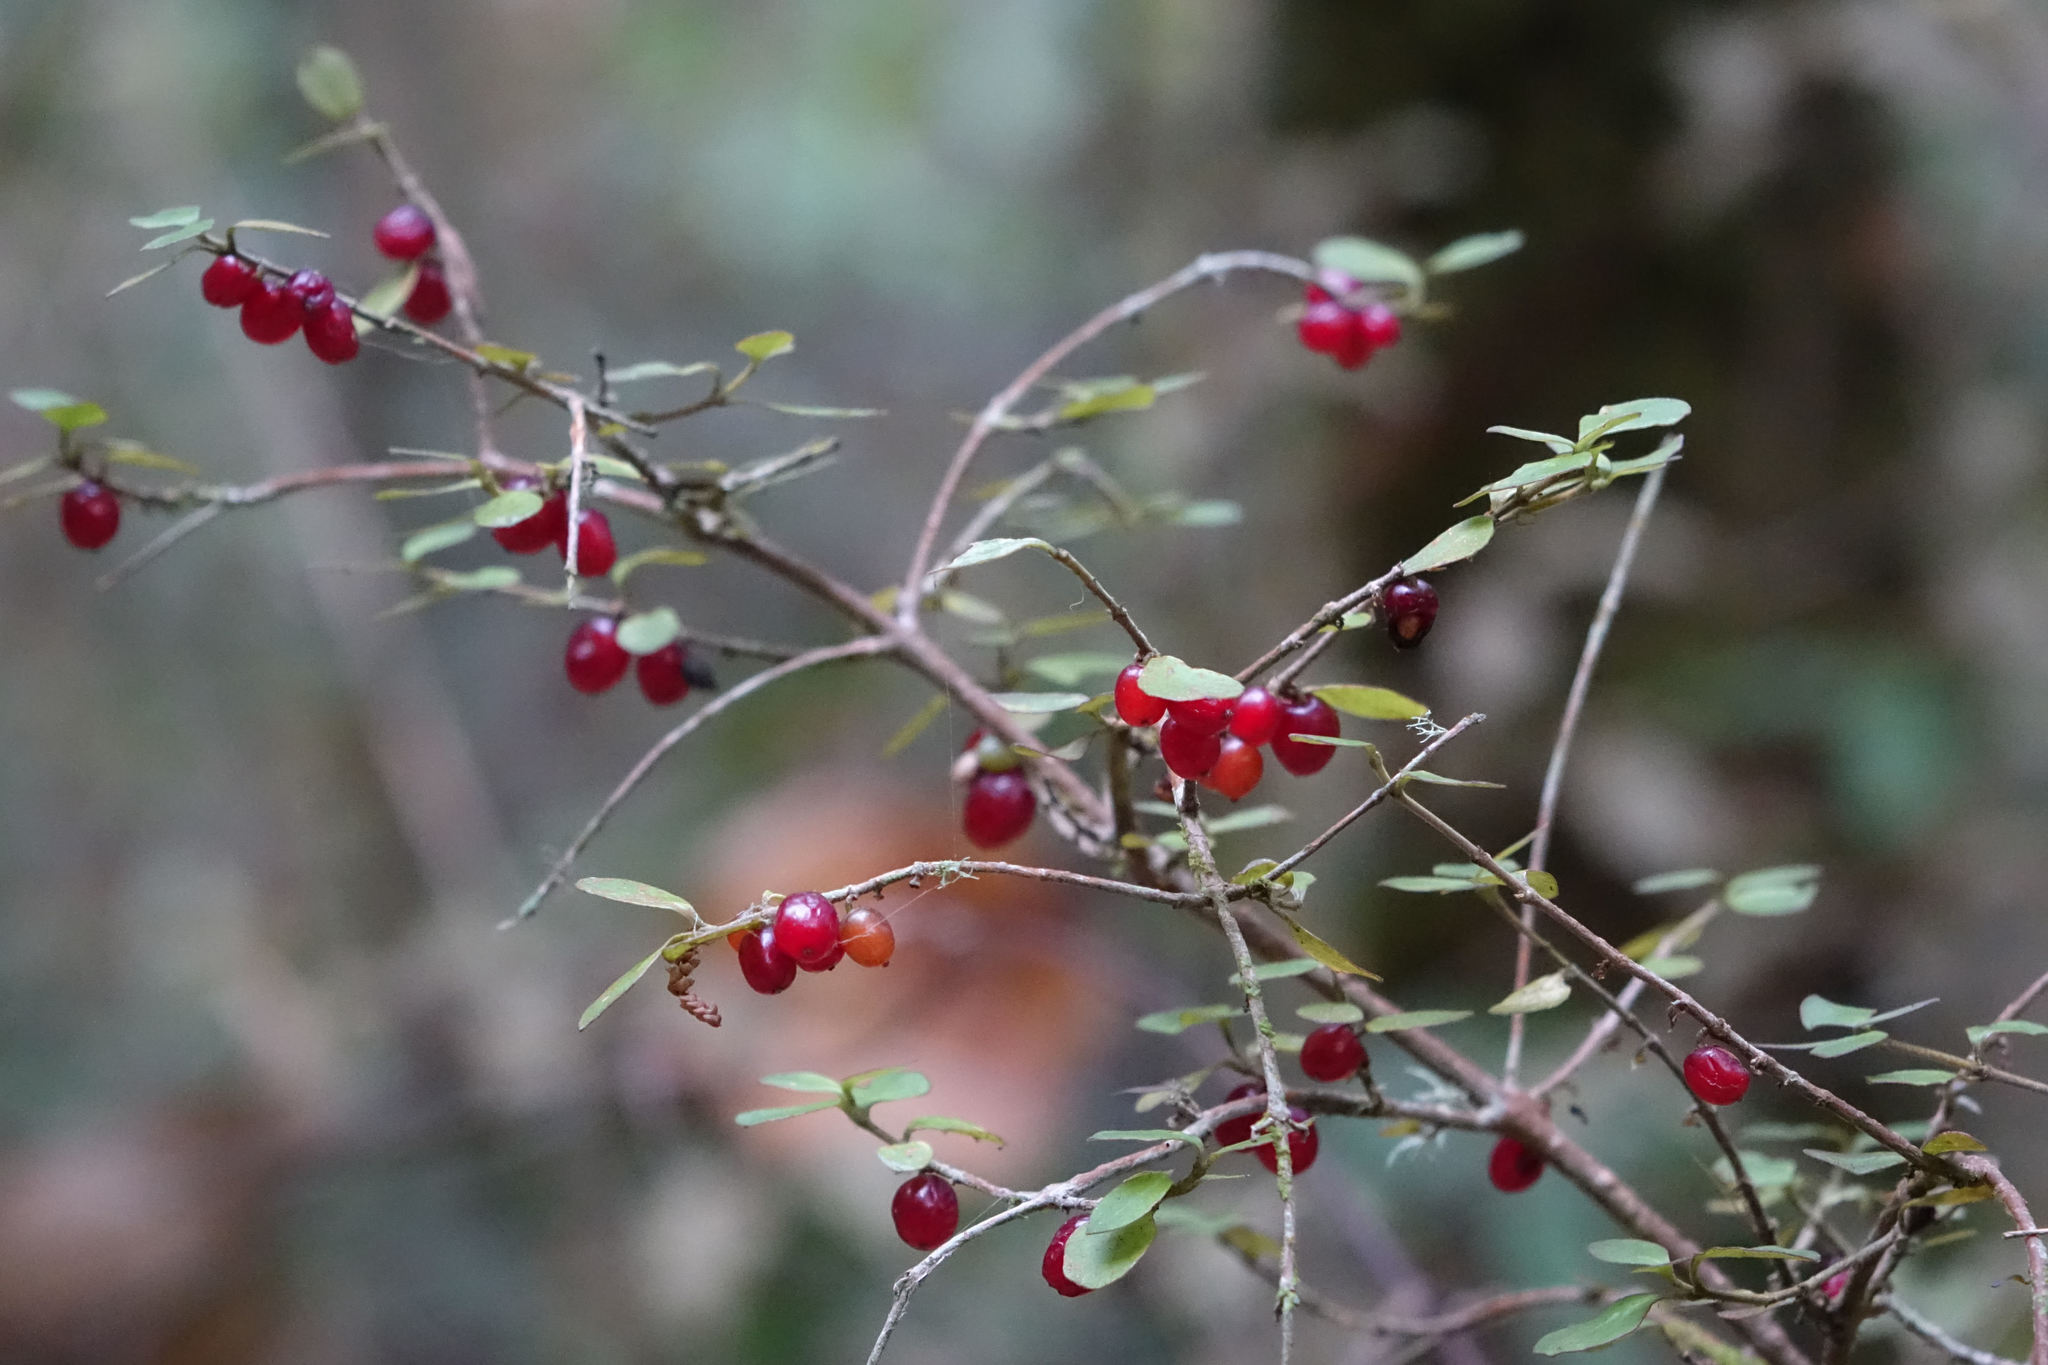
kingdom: Plantae
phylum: Tracheophyta
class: Magnoliopsida
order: Gentianales
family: Rubiaceae
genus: Coprosma
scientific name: Coprosma rhamnoides
